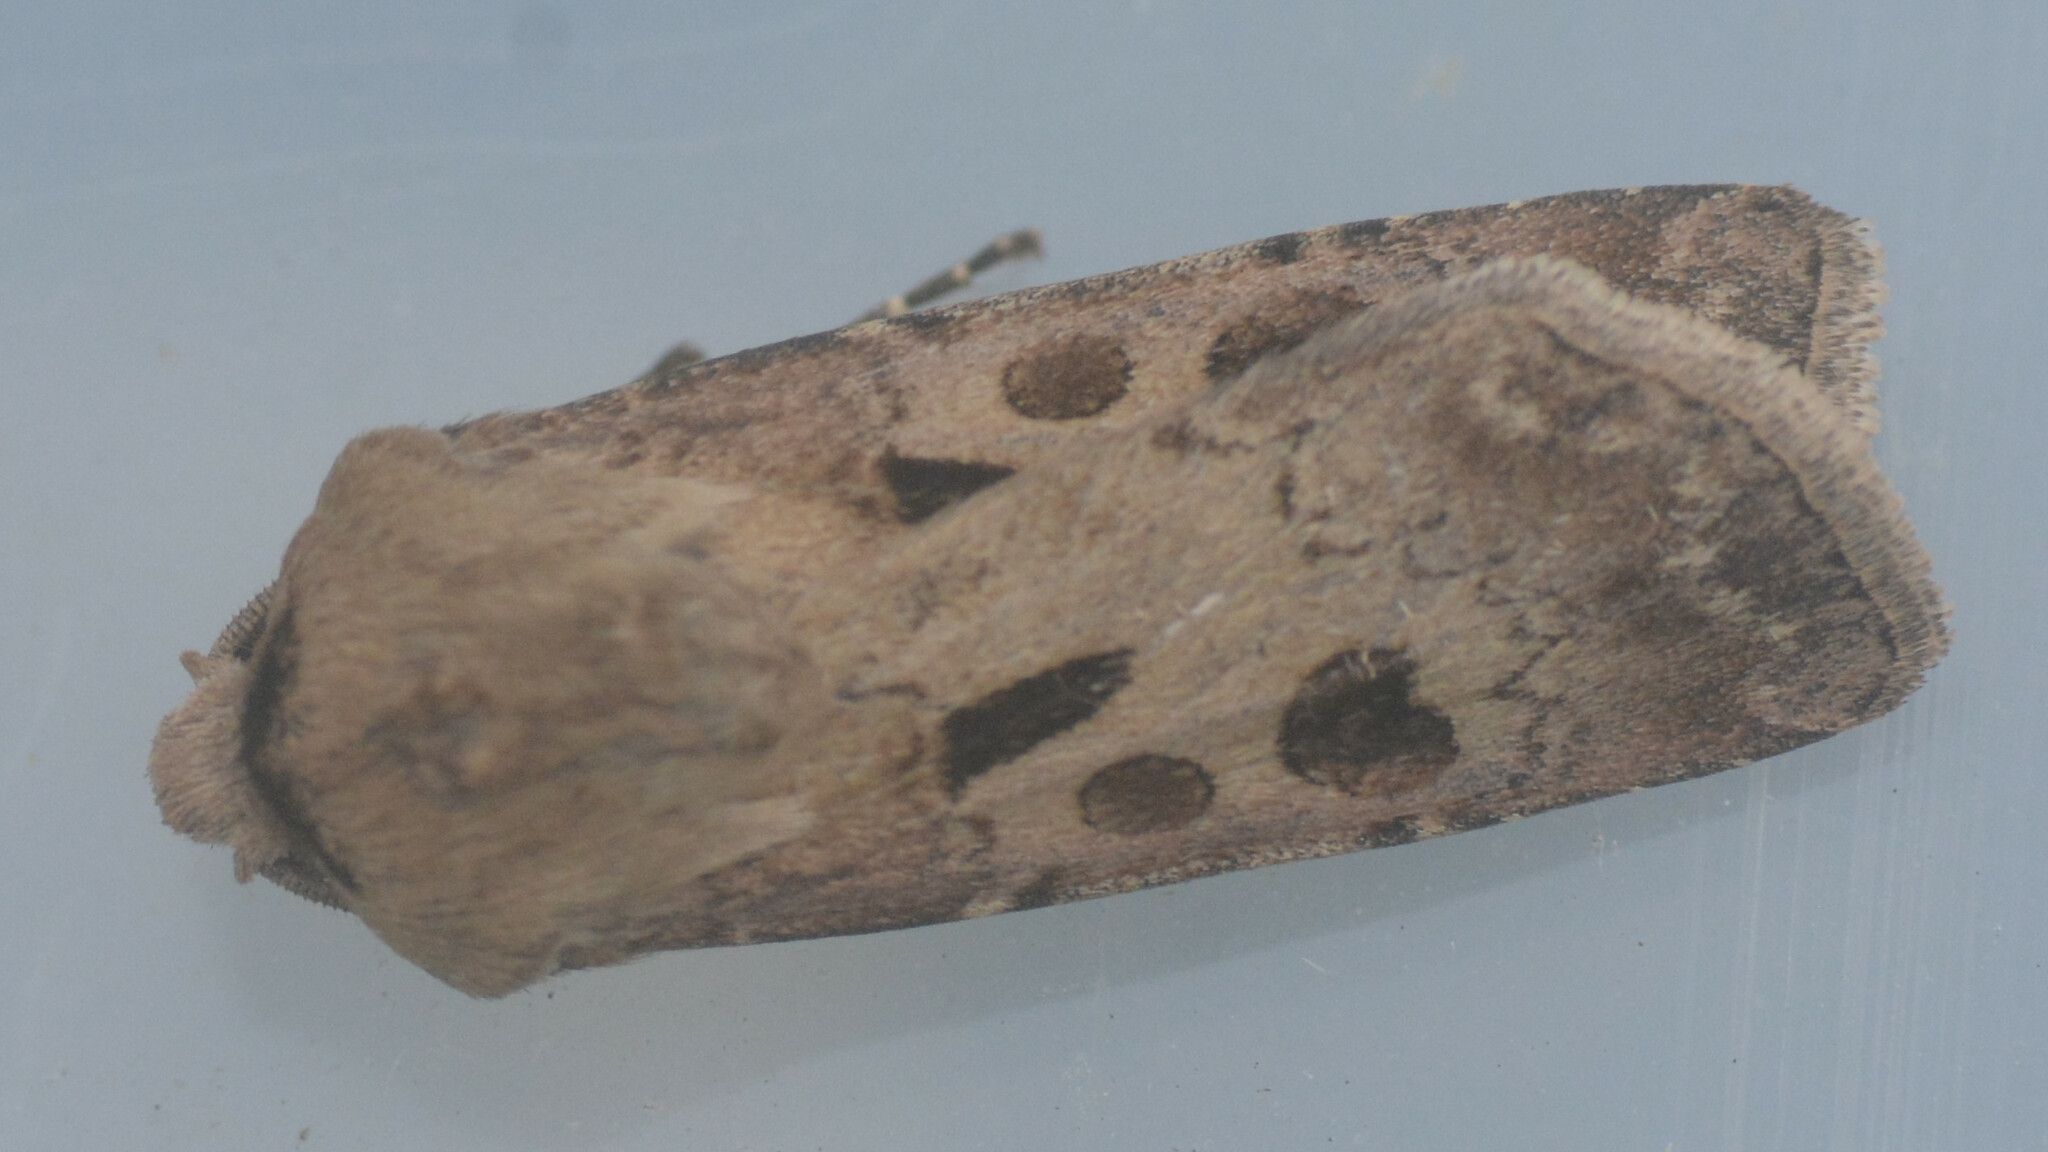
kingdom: Animalia
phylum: Arthropoda
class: Insecta
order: Lepidoptera
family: Noctuidae
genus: Agrotis
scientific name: Agrotis exclamationis
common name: Heart and dart
